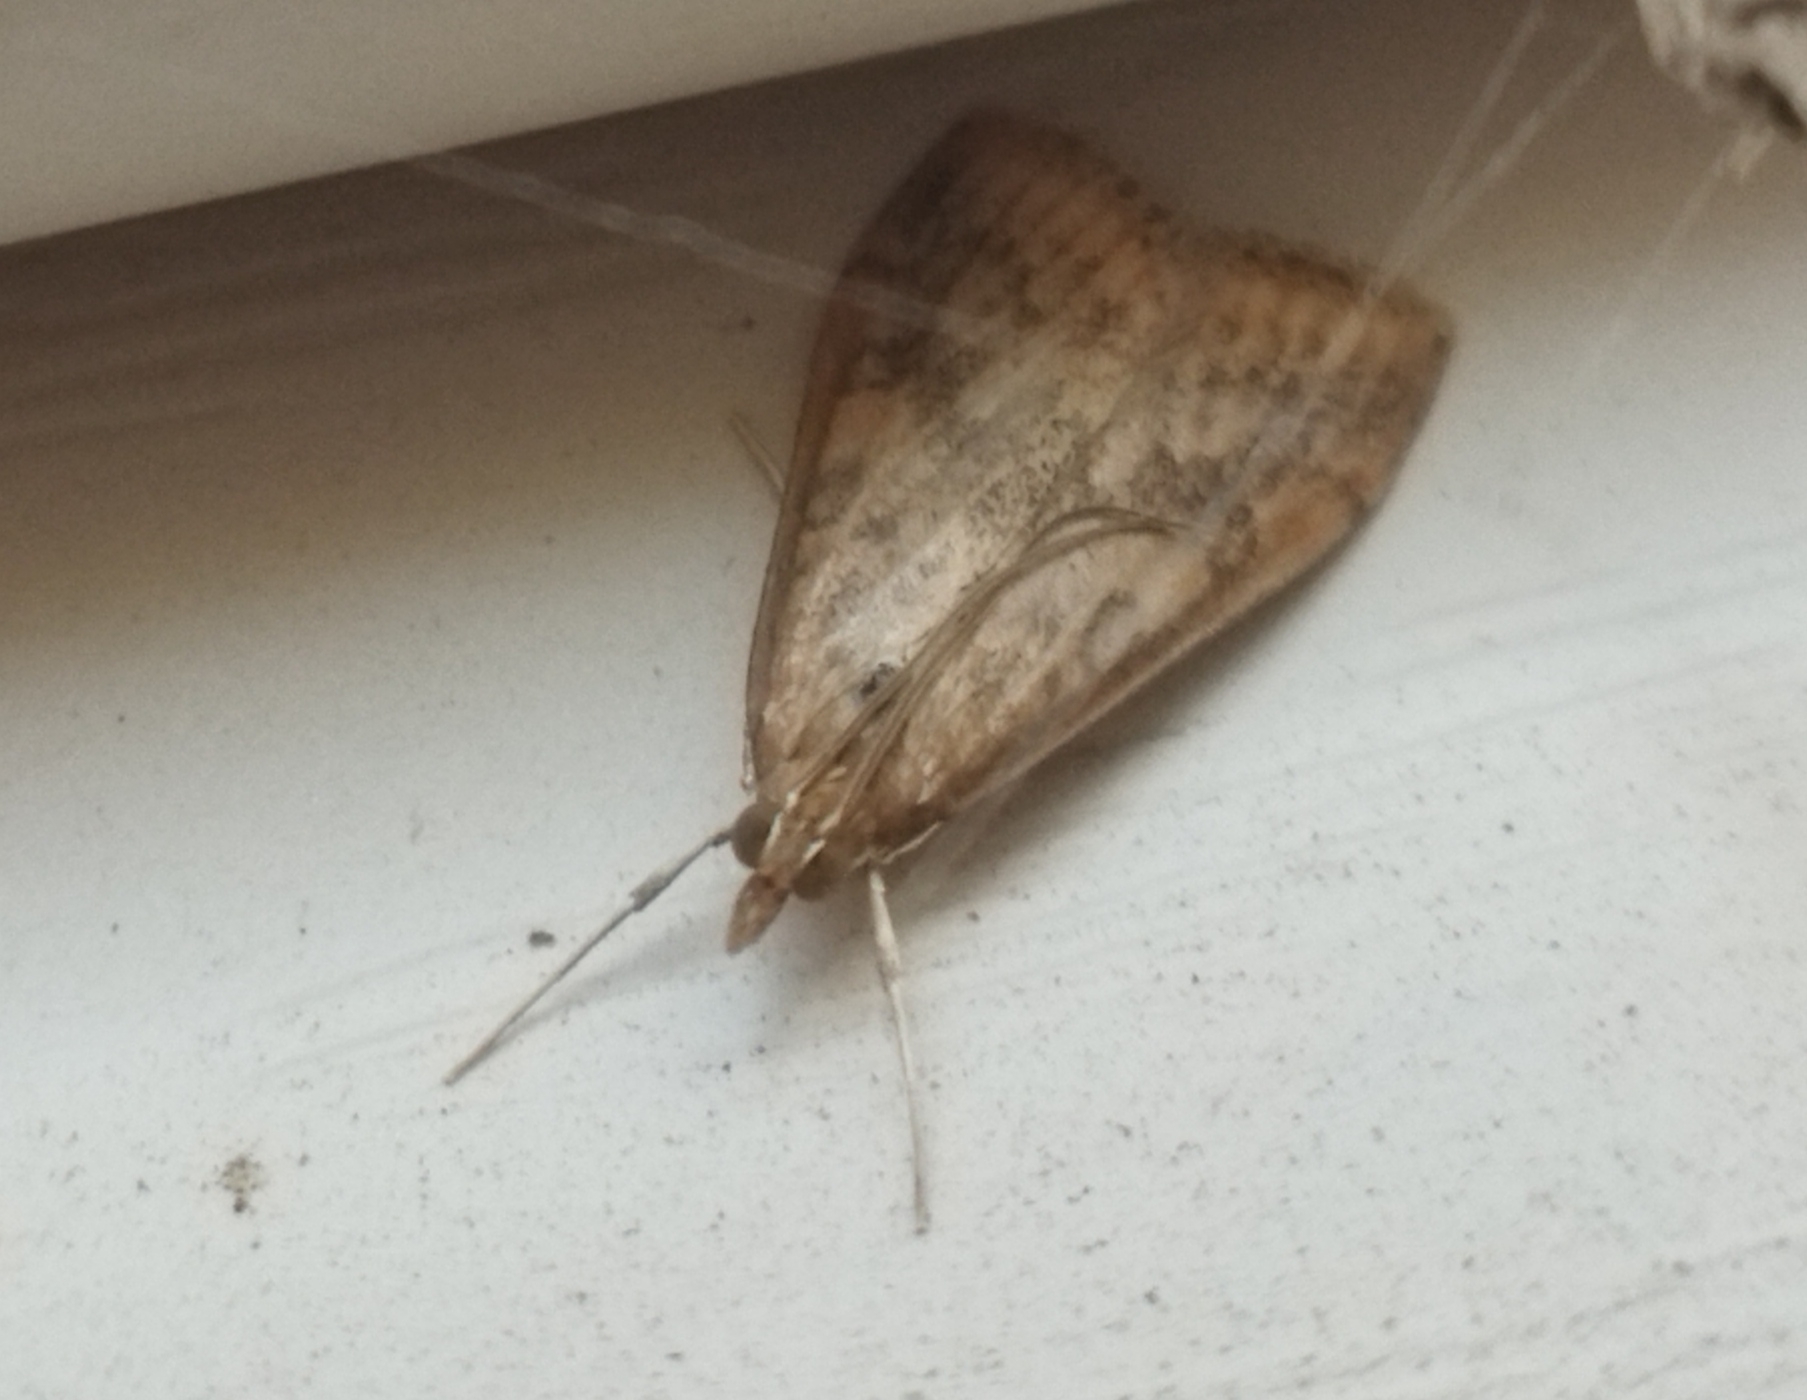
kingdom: Animalia
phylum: Arthropoda
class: Insecta
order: Lepidoptera
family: Crambidae
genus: Udea
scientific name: Udea ferrugalis
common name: Rusty dot
